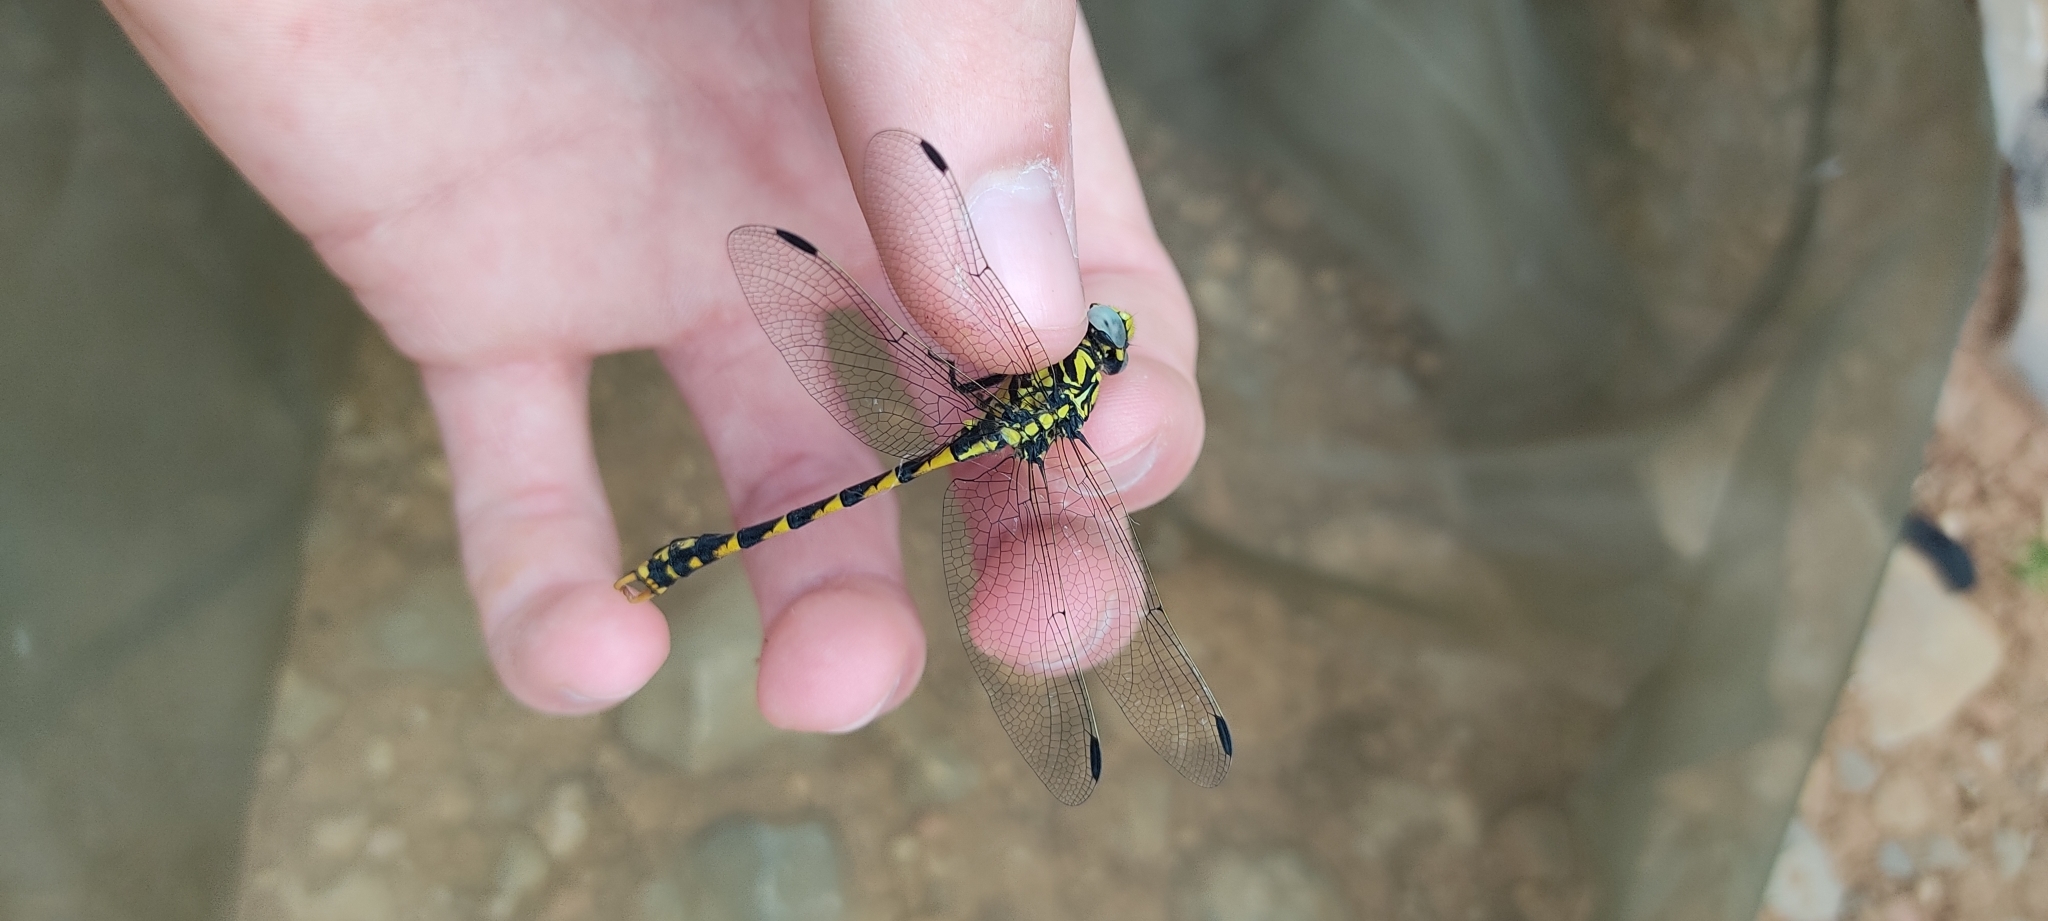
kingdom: Animalia
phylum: Arthropoda
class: Insecta
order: Odonata
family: Gomphidae
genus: Onychogomphus
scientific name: Onychogomphus uncatus
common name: Large pincertail
